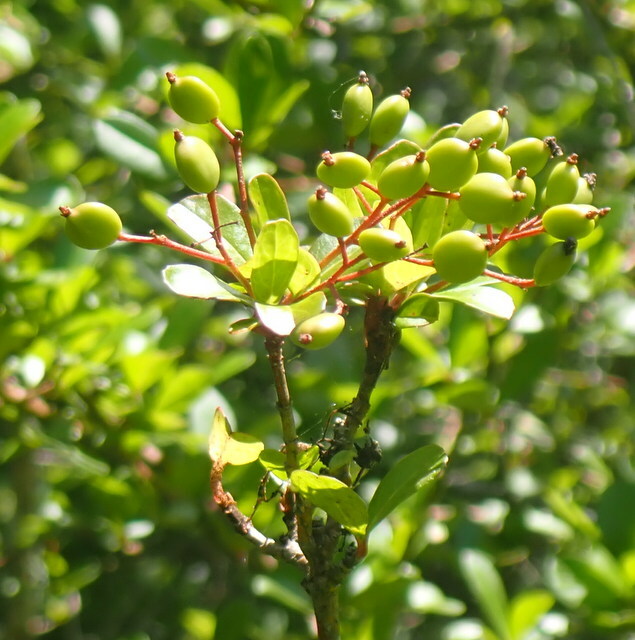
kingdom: Plantae
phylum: Tracheophyta
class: Magnoliopsida
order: Dipsacales
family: Viburnaceae
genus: Viburnum
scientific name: Viburnum obovatum
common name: Walter's viburnum
